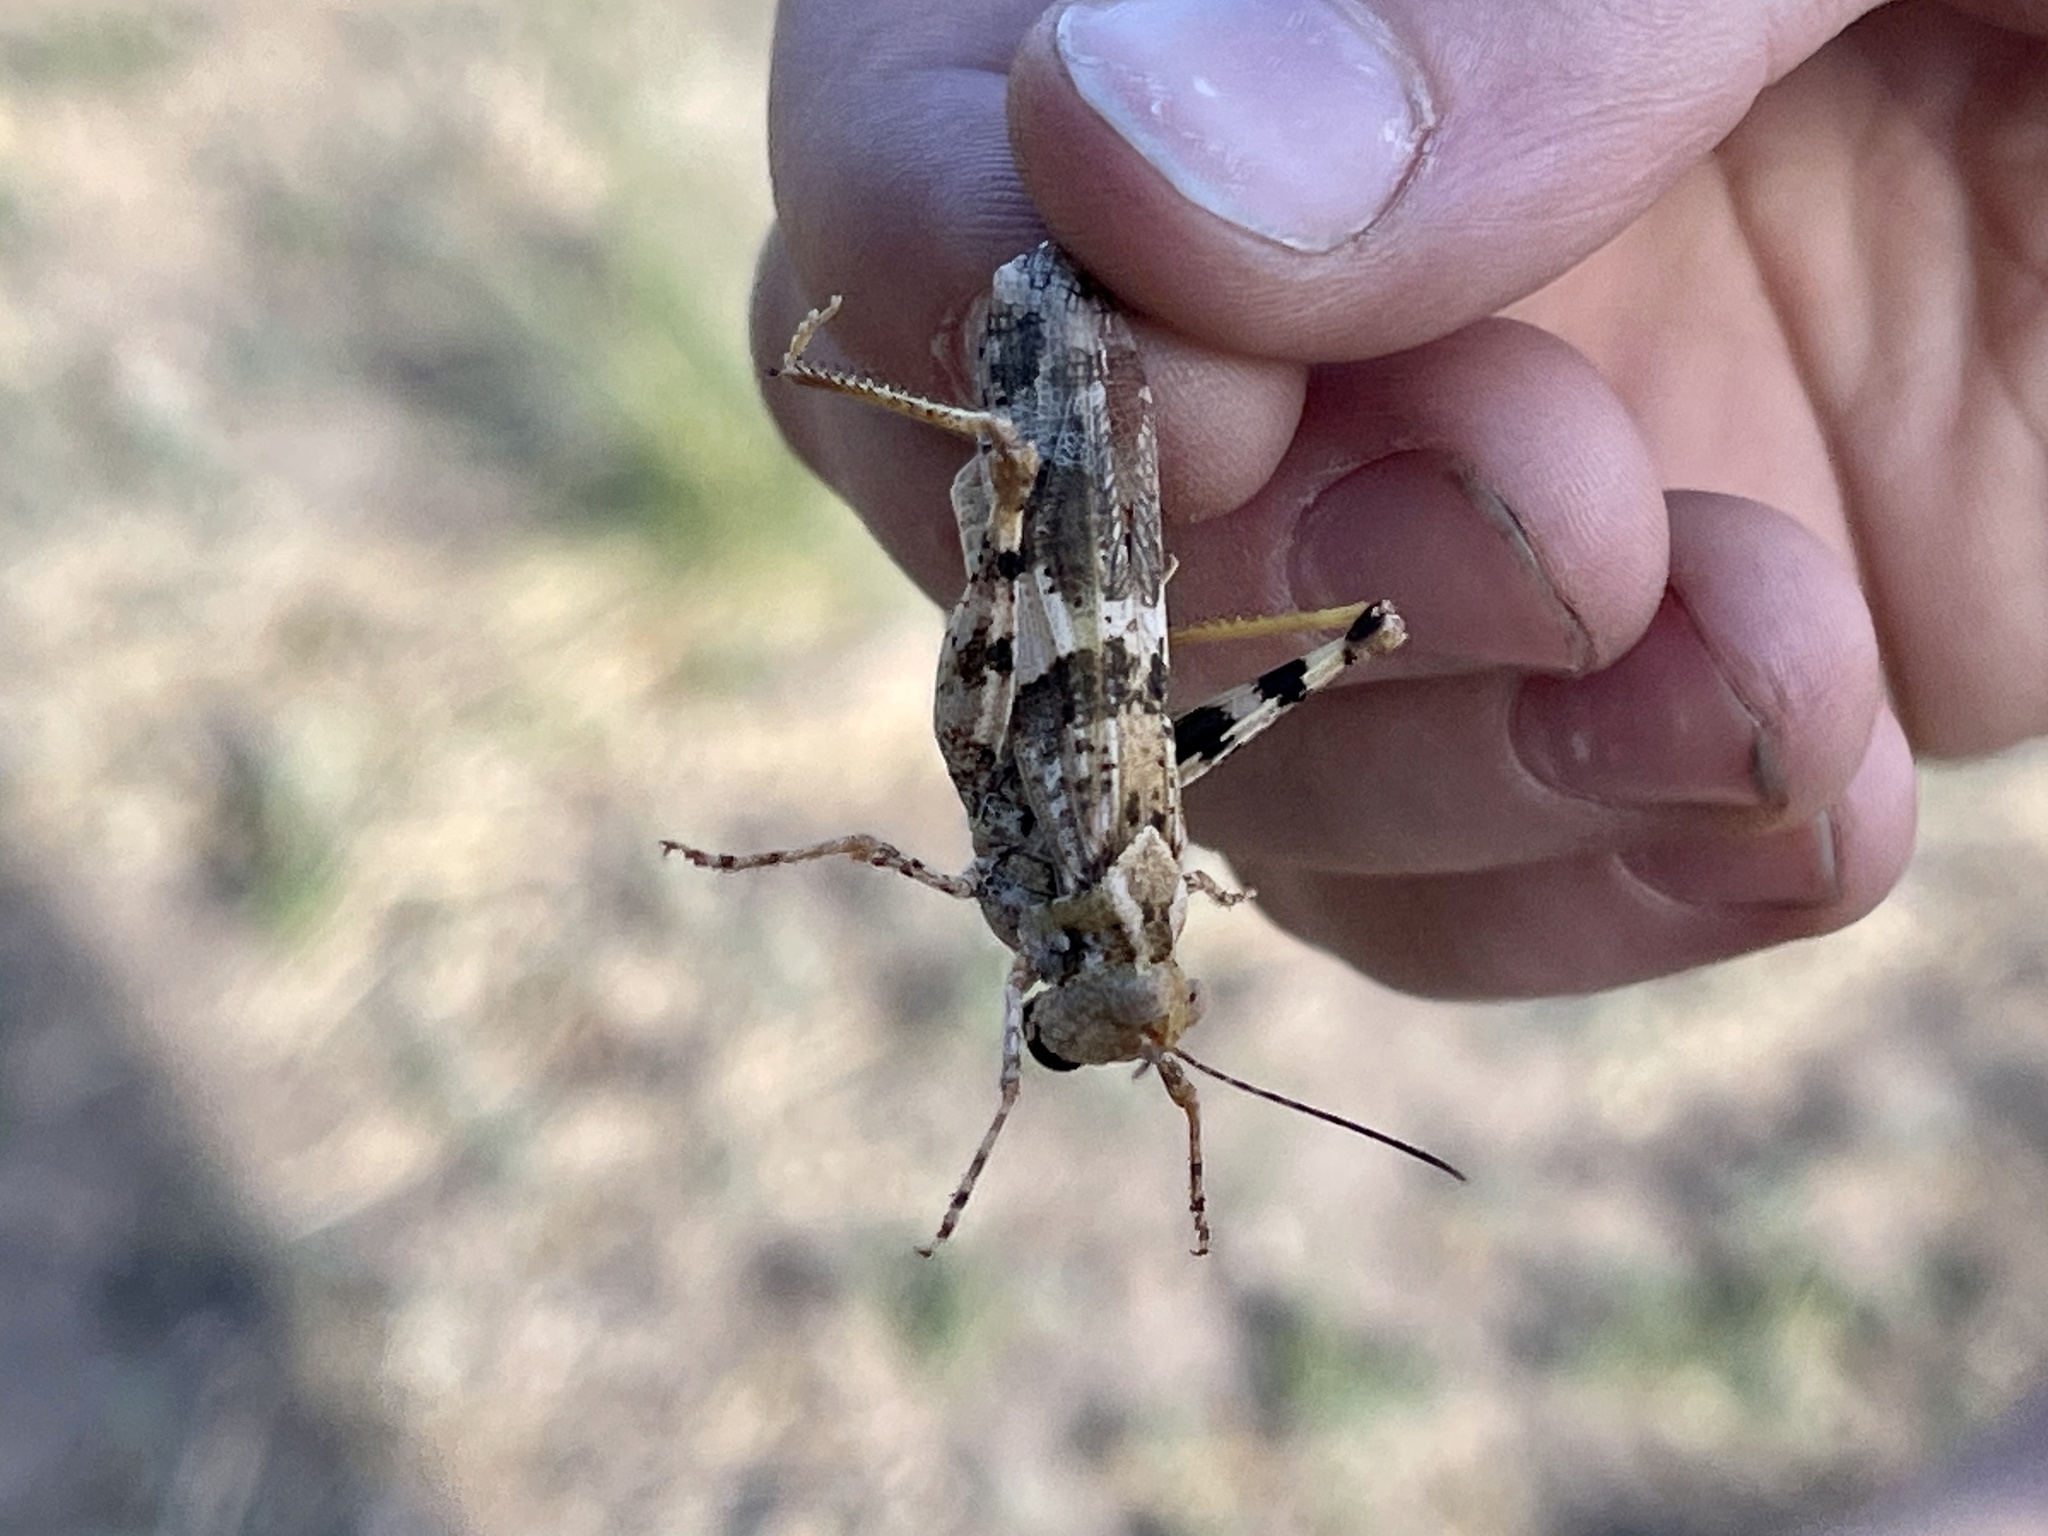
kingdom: Animalia
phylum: Arthropoda
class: Insecta
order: Orthoptera
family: Acrididae
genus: Trimerotropis
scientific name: Trimerotropis pallidipennis
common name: Pallid-winged grasshopper
